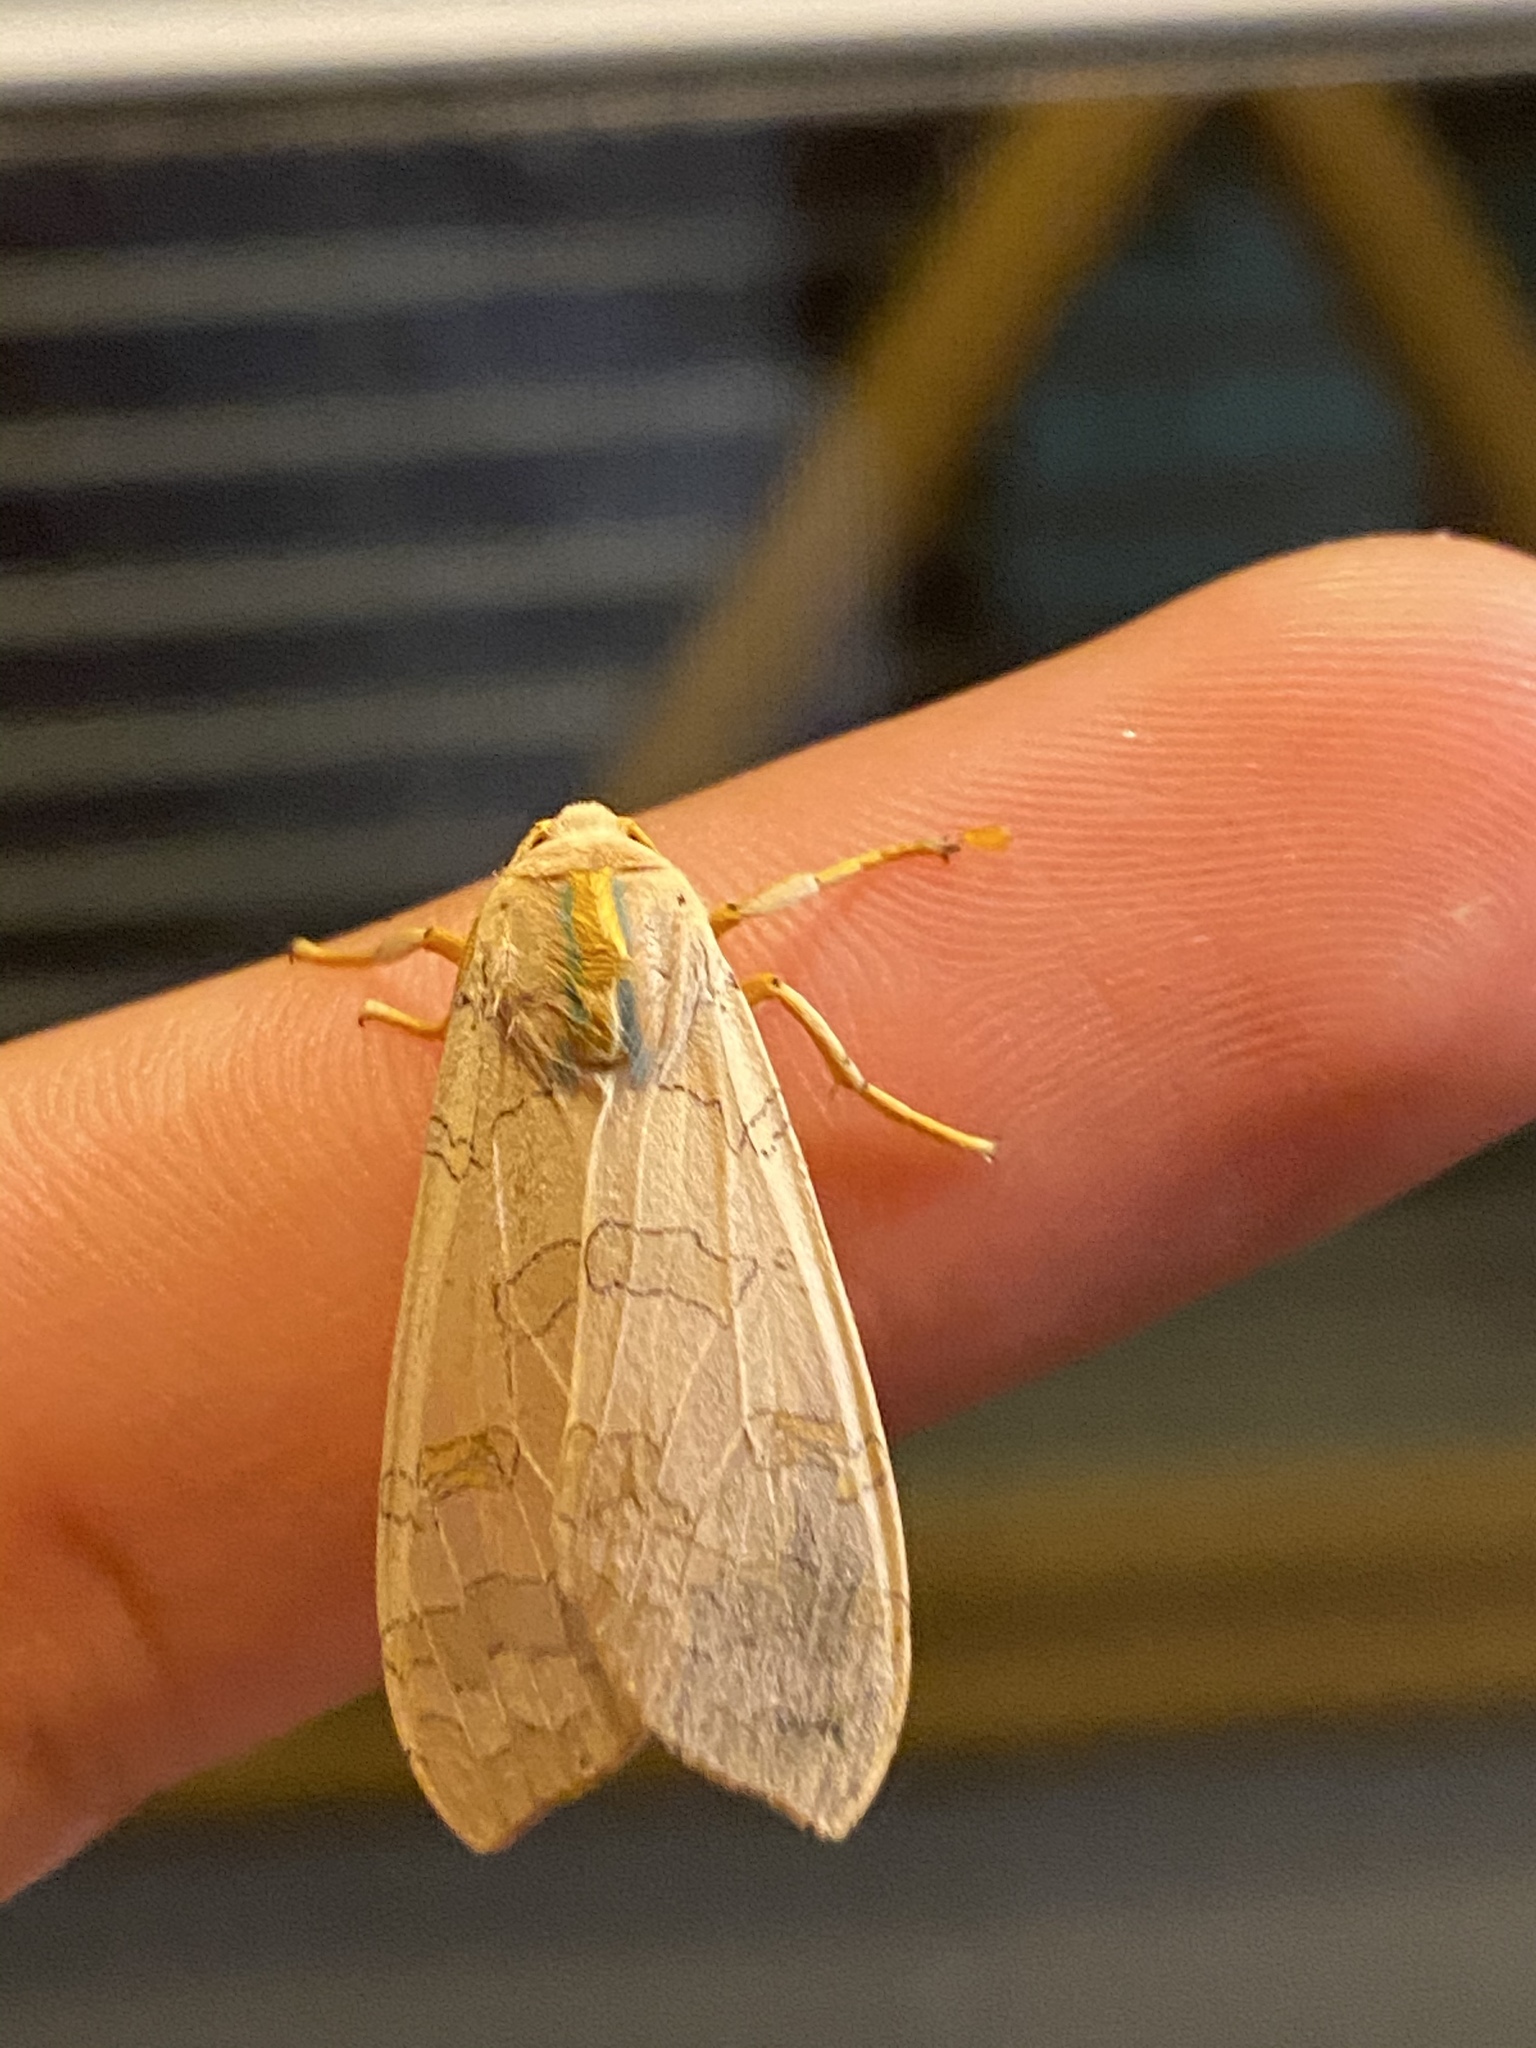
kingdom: Animalia
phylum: Arthropoda
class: Insecta
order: Lepidoptera
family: Erebidae
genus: Halysidota
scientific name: Halysidota
